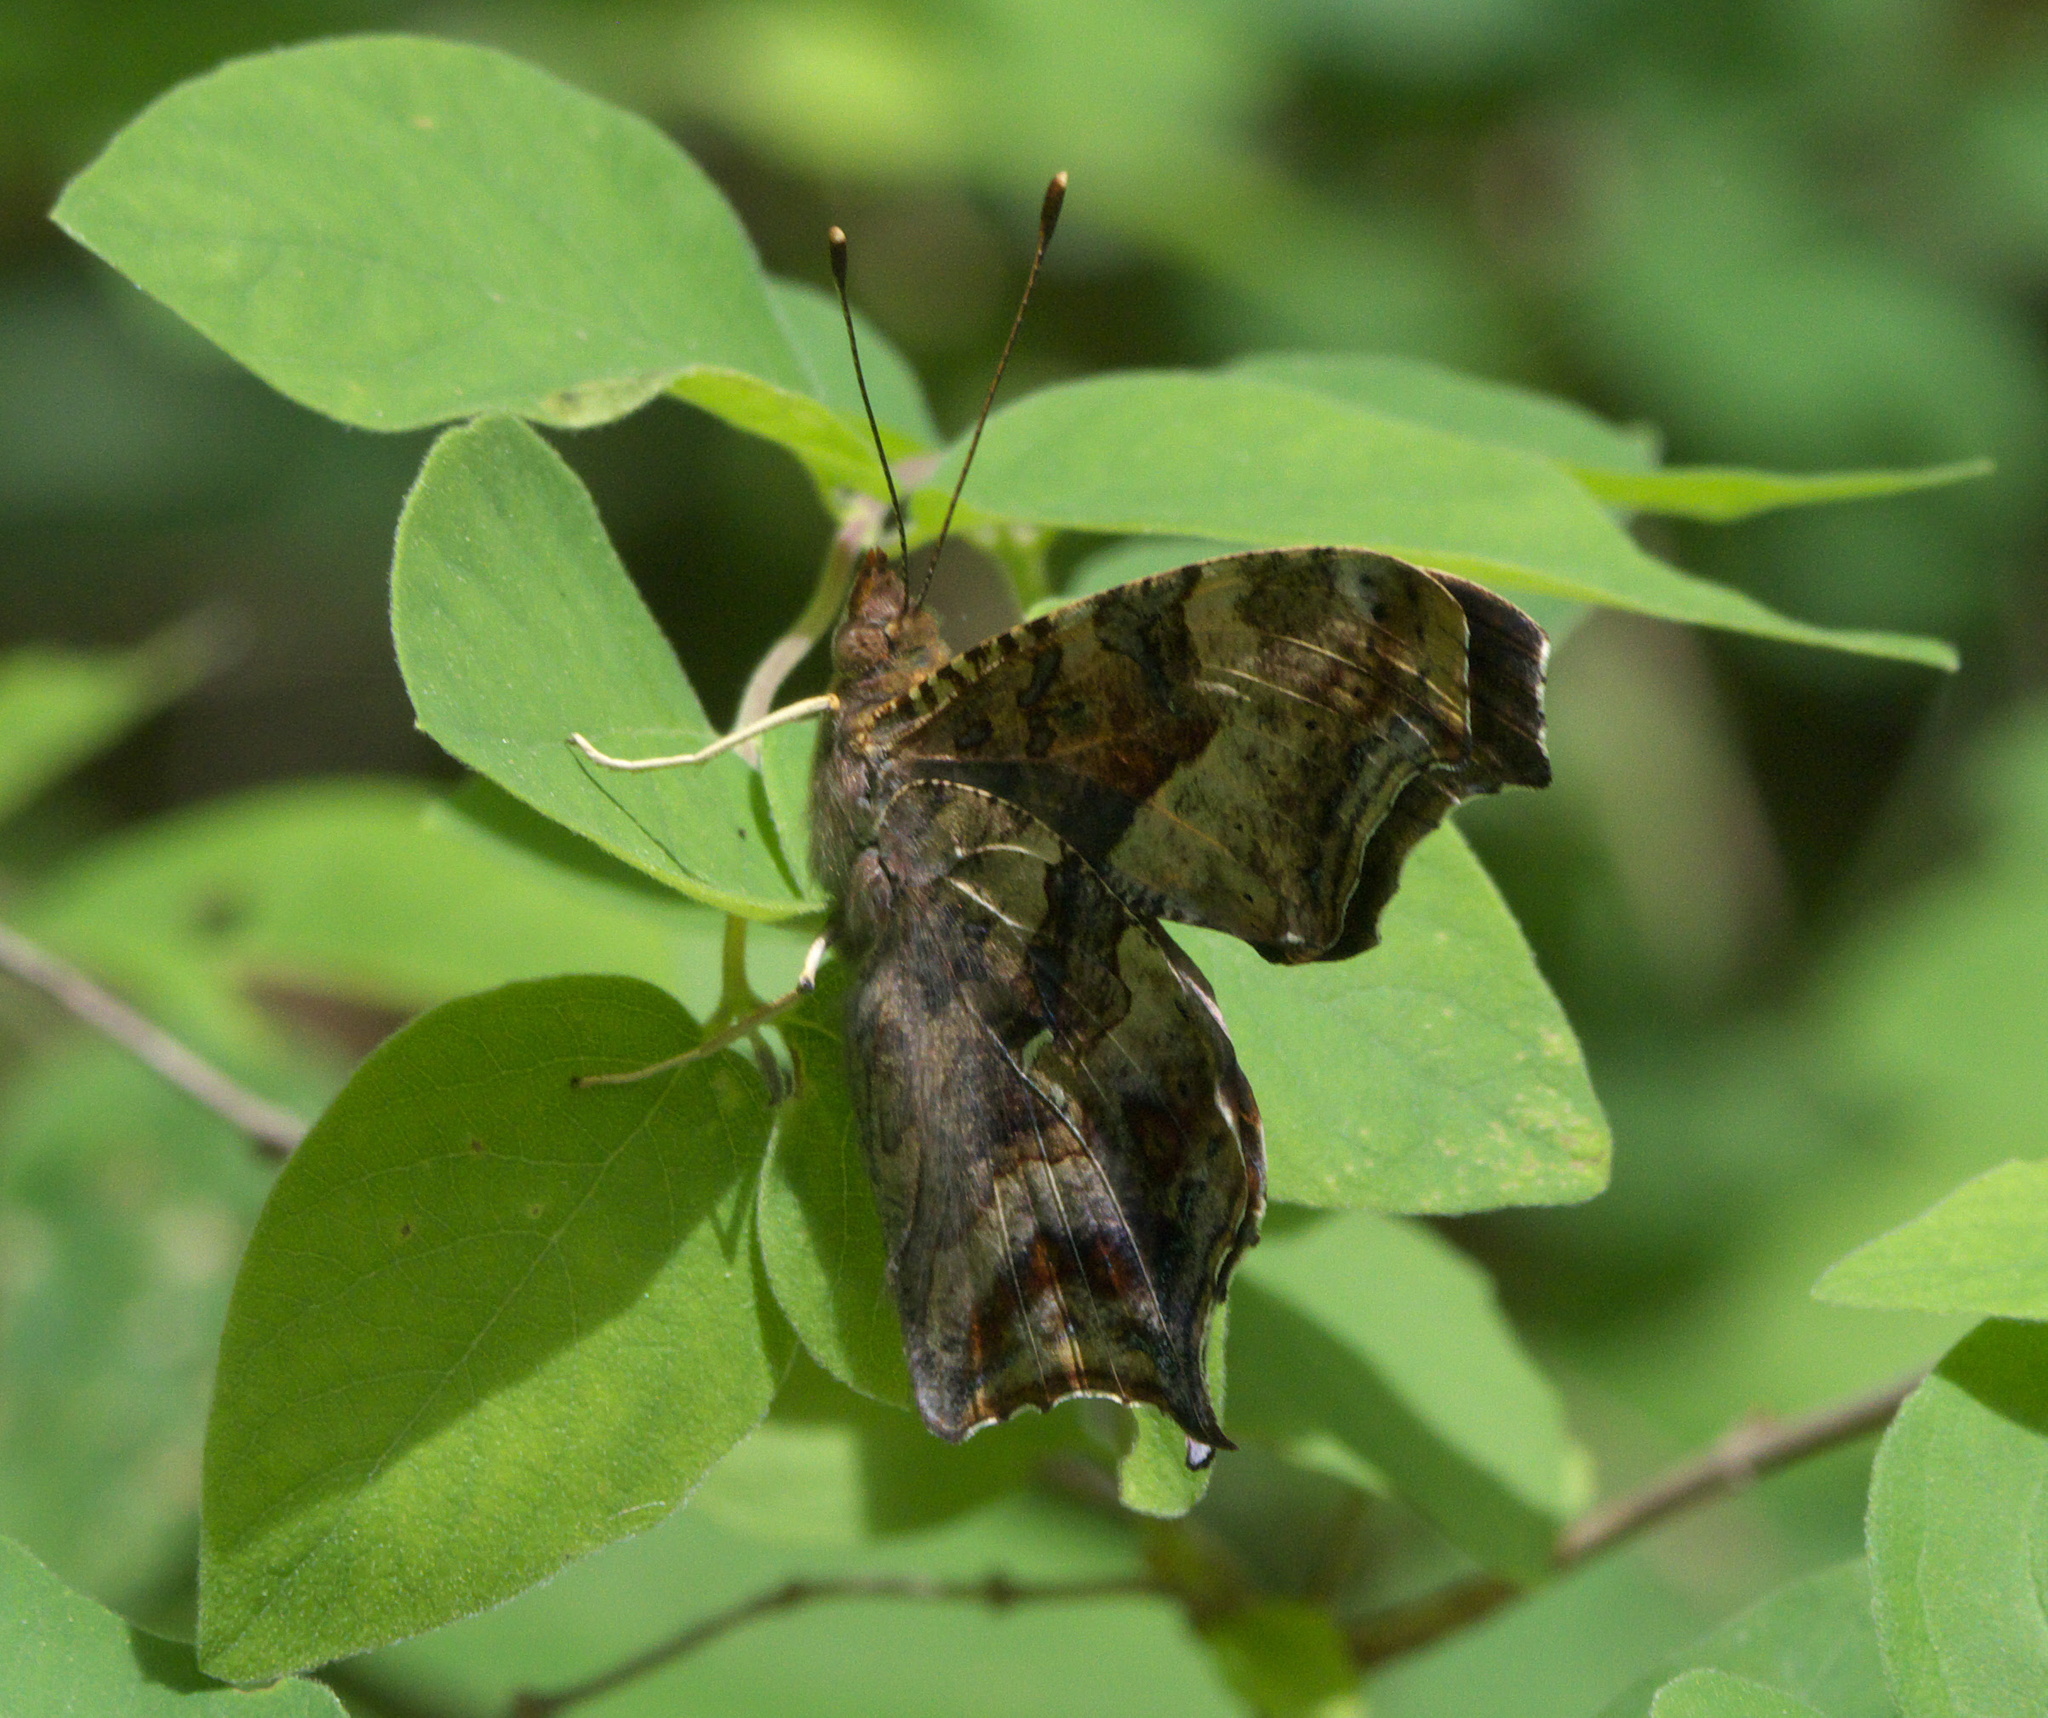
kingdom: Animalia
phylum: Arthropoda
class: Insecta
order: Lepidoptera
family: Nymphalidae
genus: Polygonia
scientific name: Polygonia interrogationis
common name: Question mark
